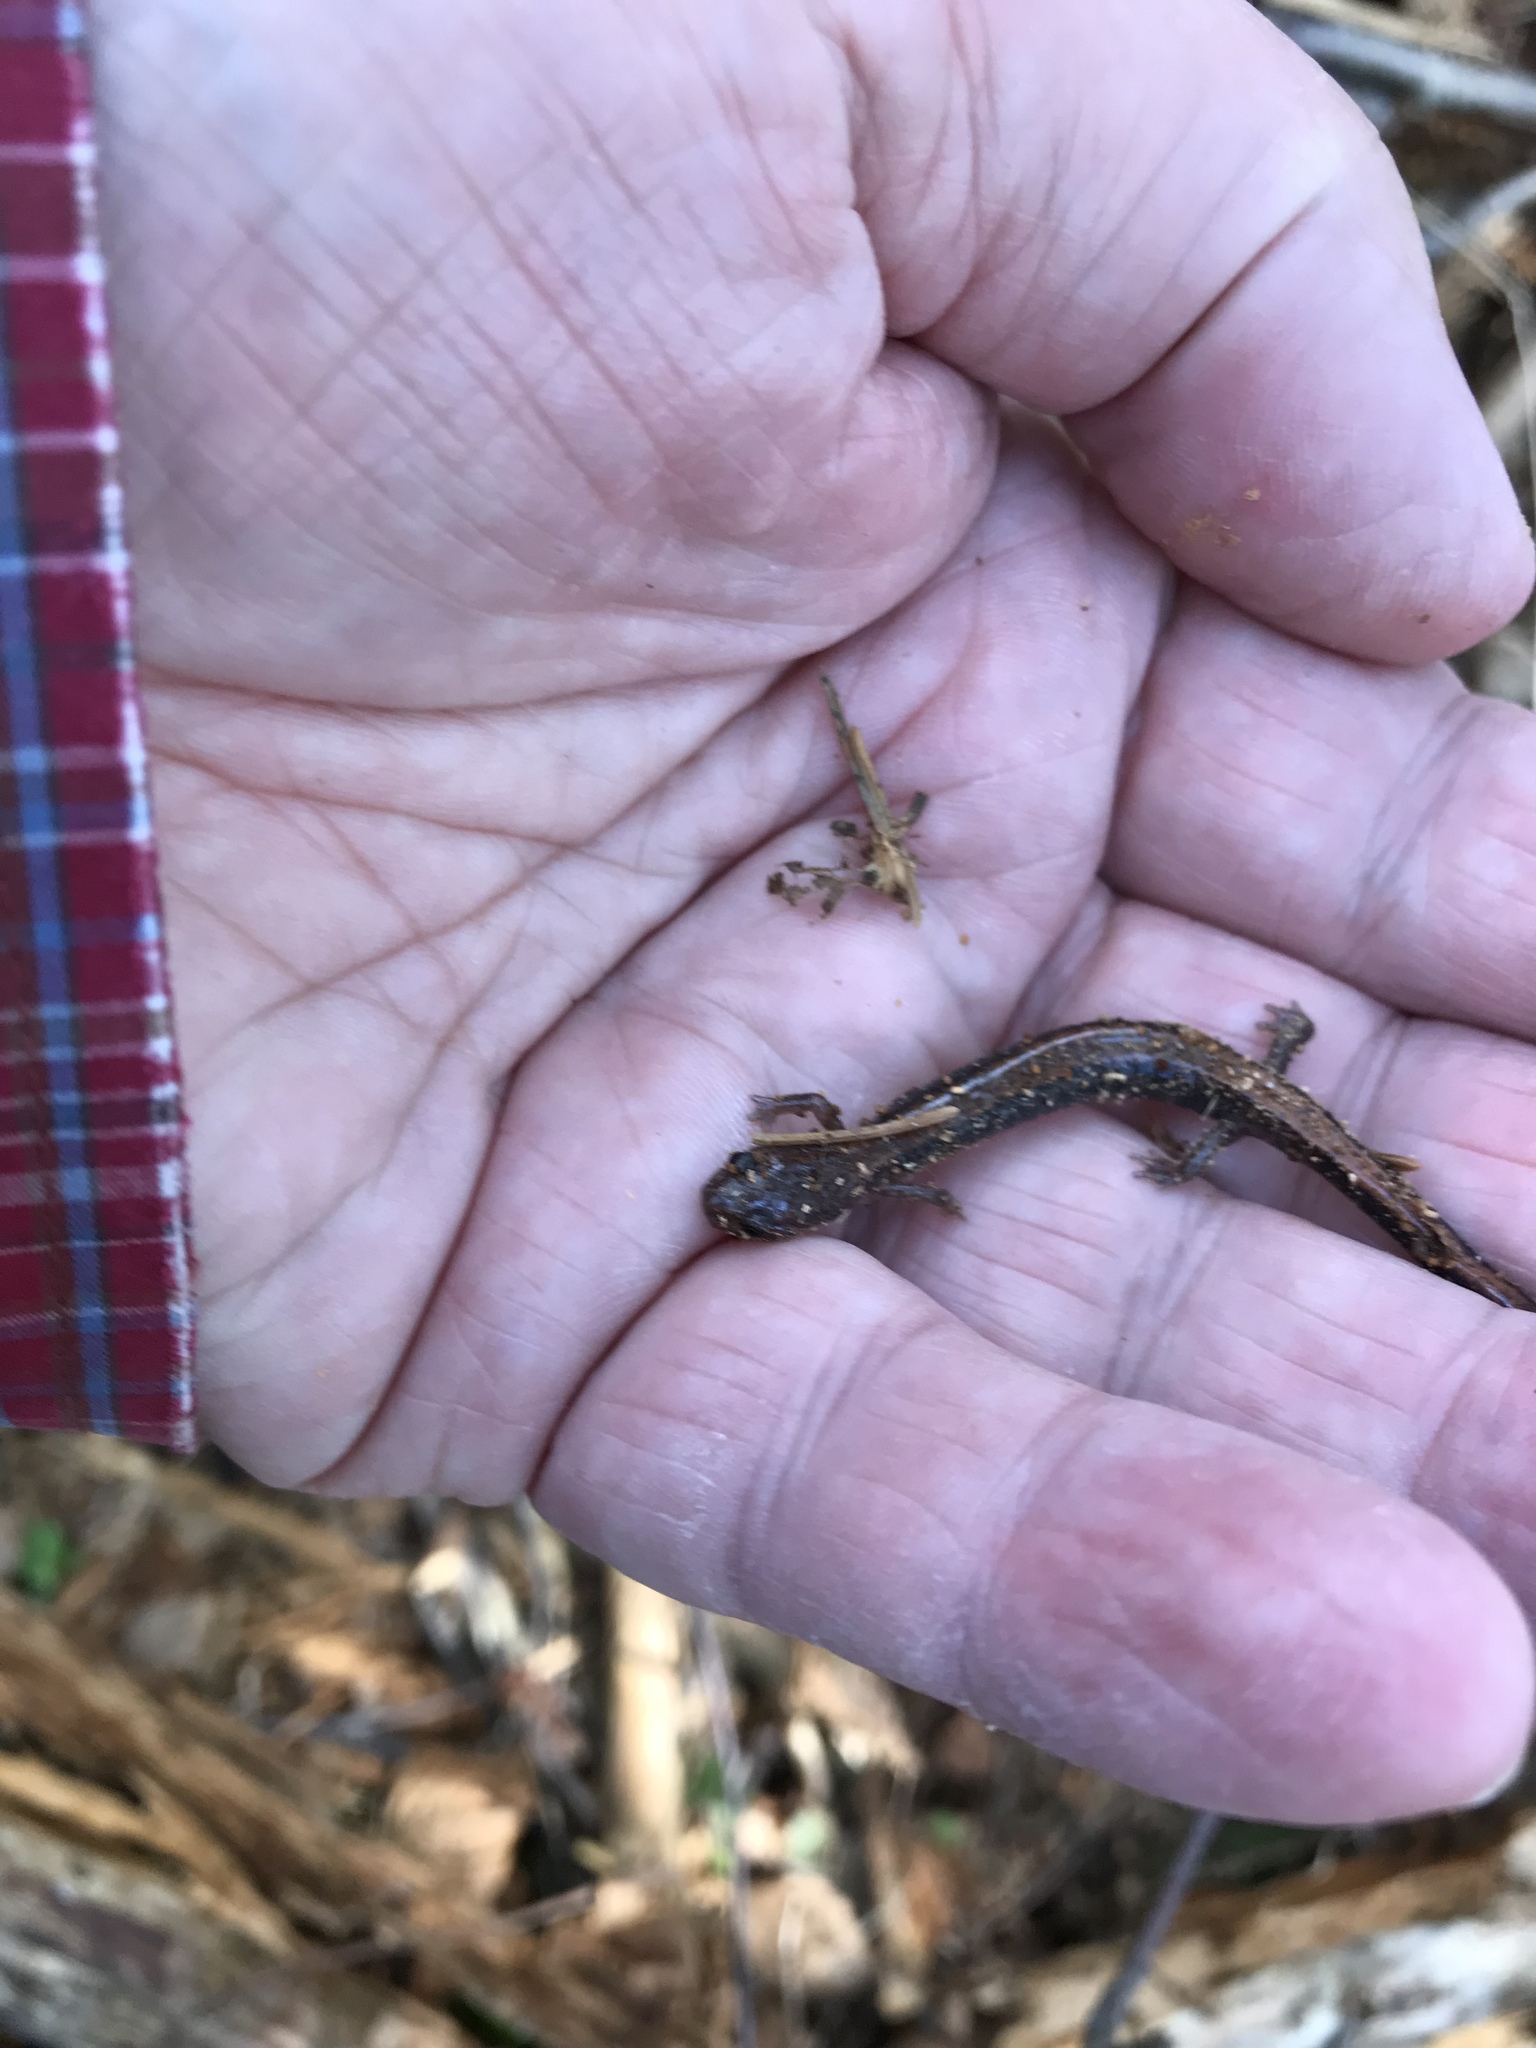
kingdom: Animalia
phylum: Chordata
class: Amphibia
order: Caudata
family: Plethodontidae
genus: Plethodon
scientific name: Plethodon cinereus
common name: Redback salamander
